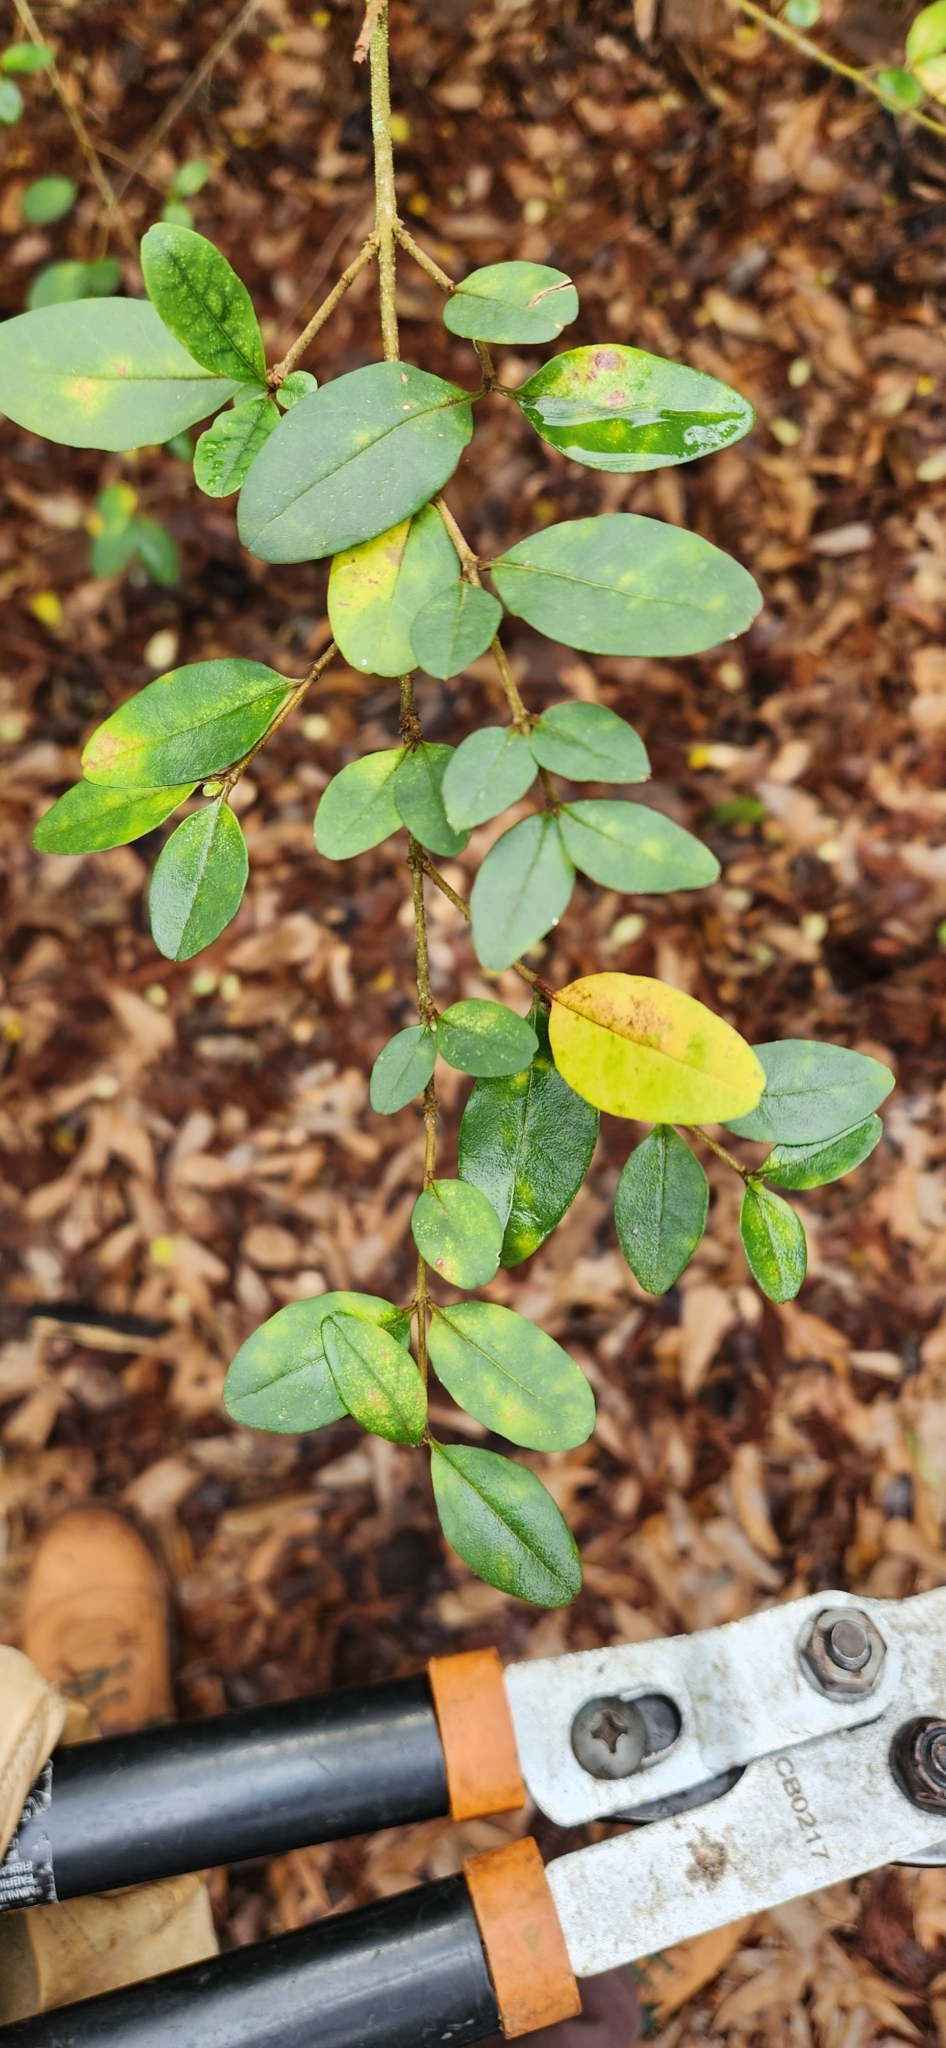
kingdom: Plantae
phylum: Tracheophyta
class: Magnoliopsida
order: Lamiales
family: Oleaceae
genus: Ligustrum
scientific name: Ligustrum sinense
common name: Chinese privet
